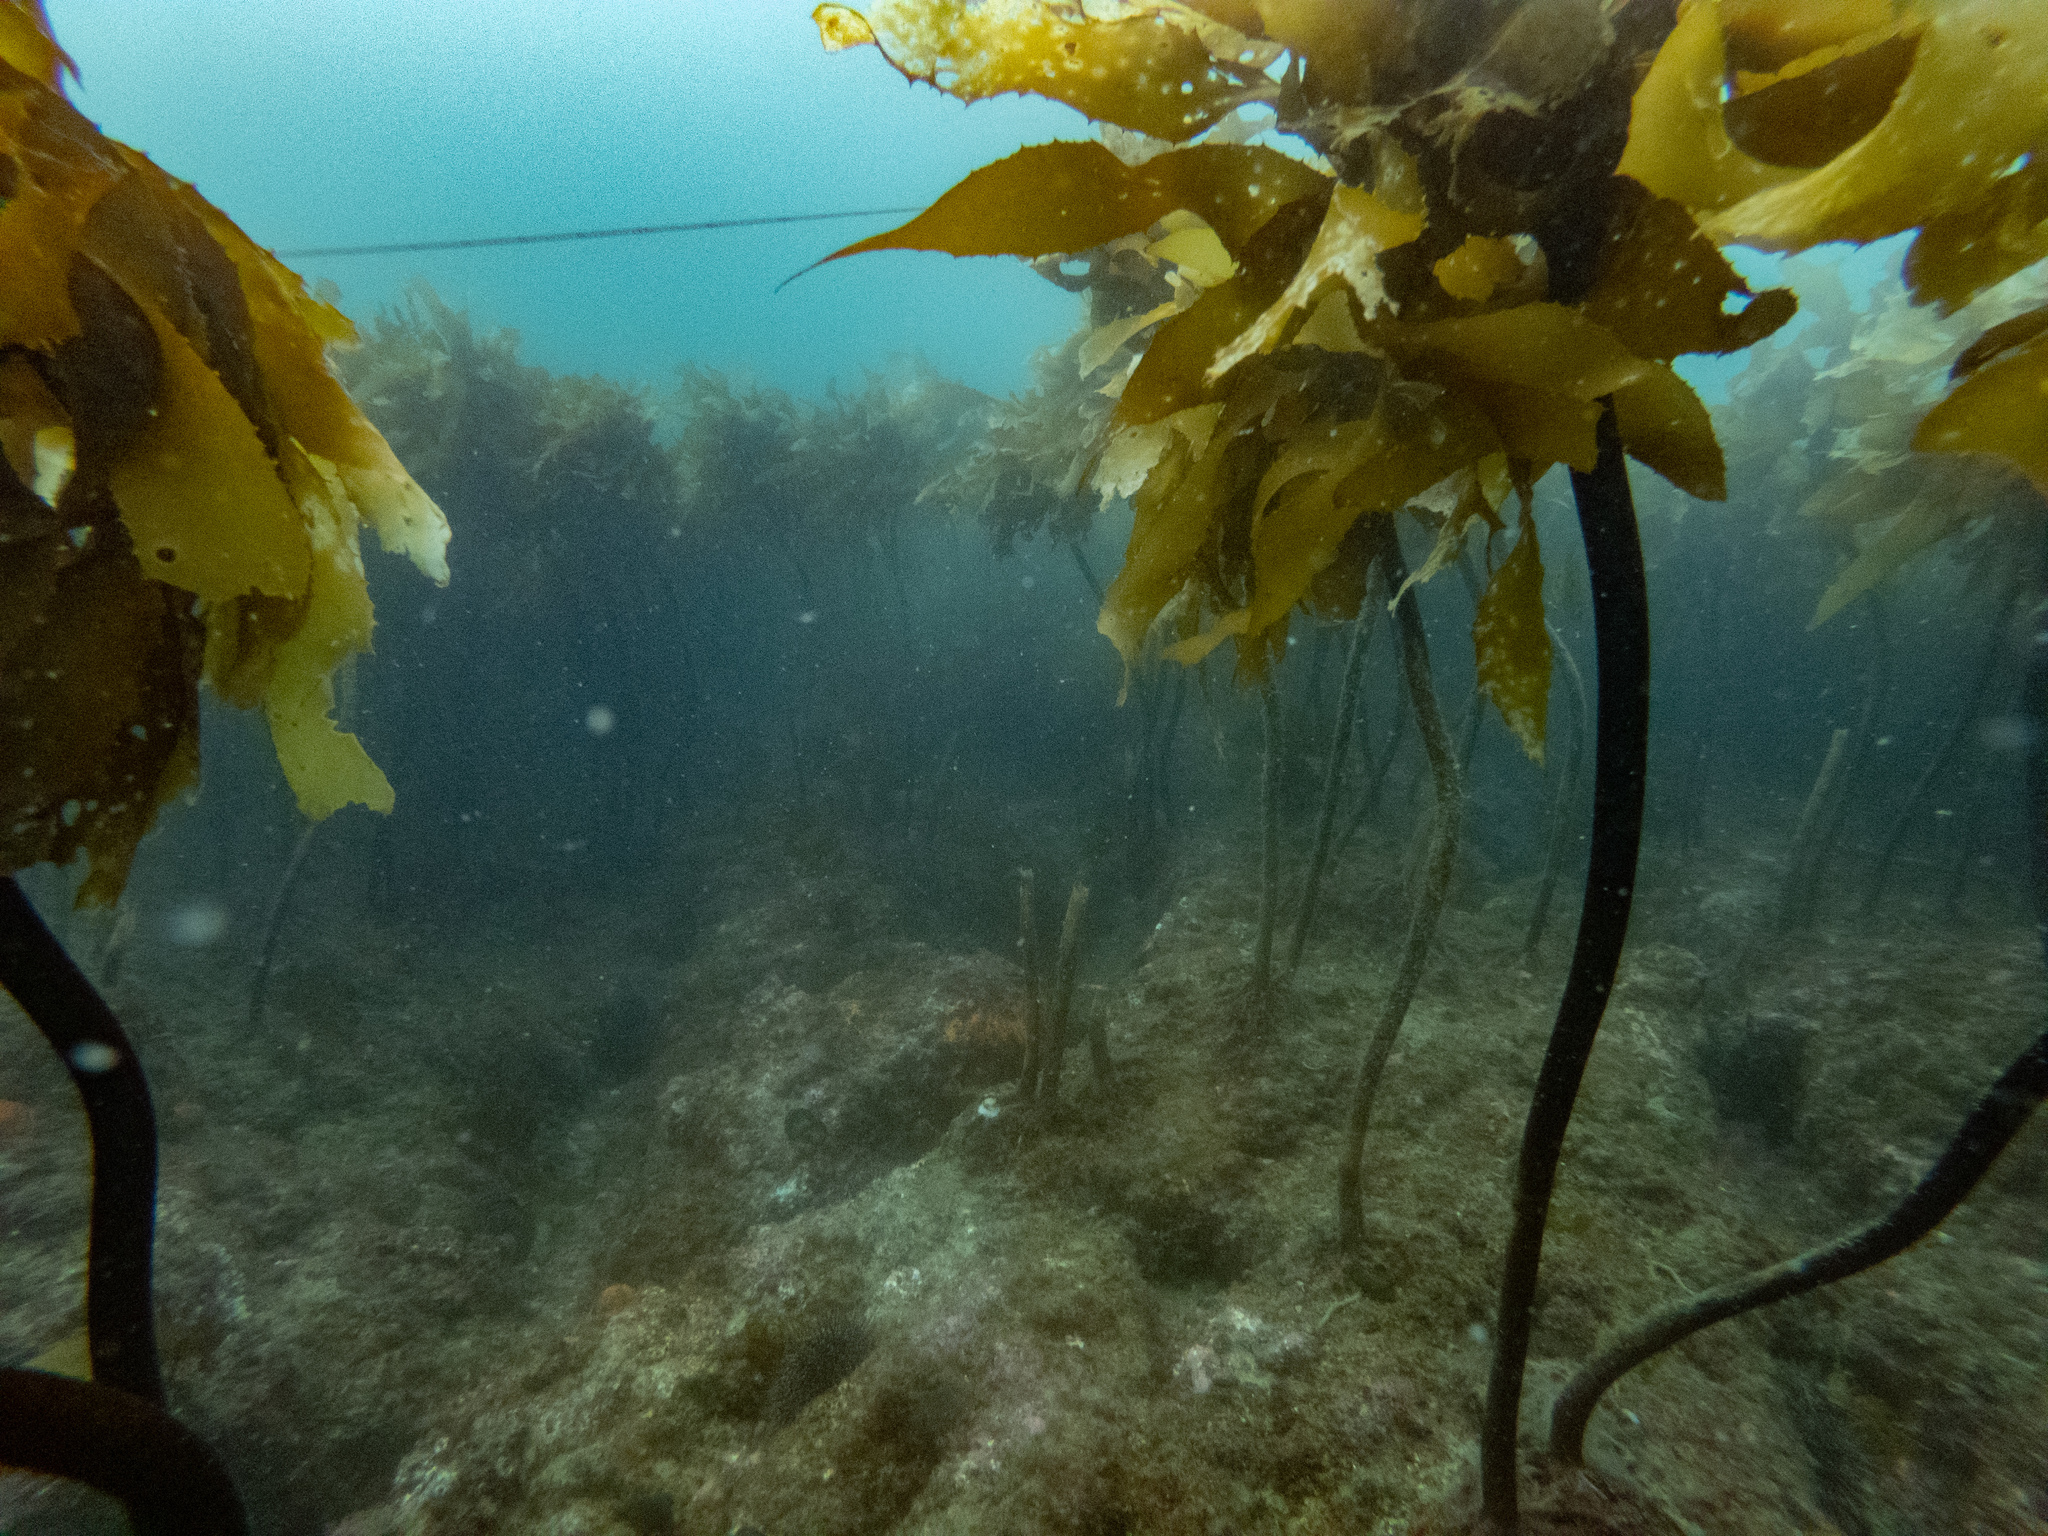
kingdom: Chromista
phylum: Ochrophyta
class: Phaeophyceae
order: Laminariales
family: Lessoniaceae
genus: Ecklonia
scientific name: Ecklonia radiata
